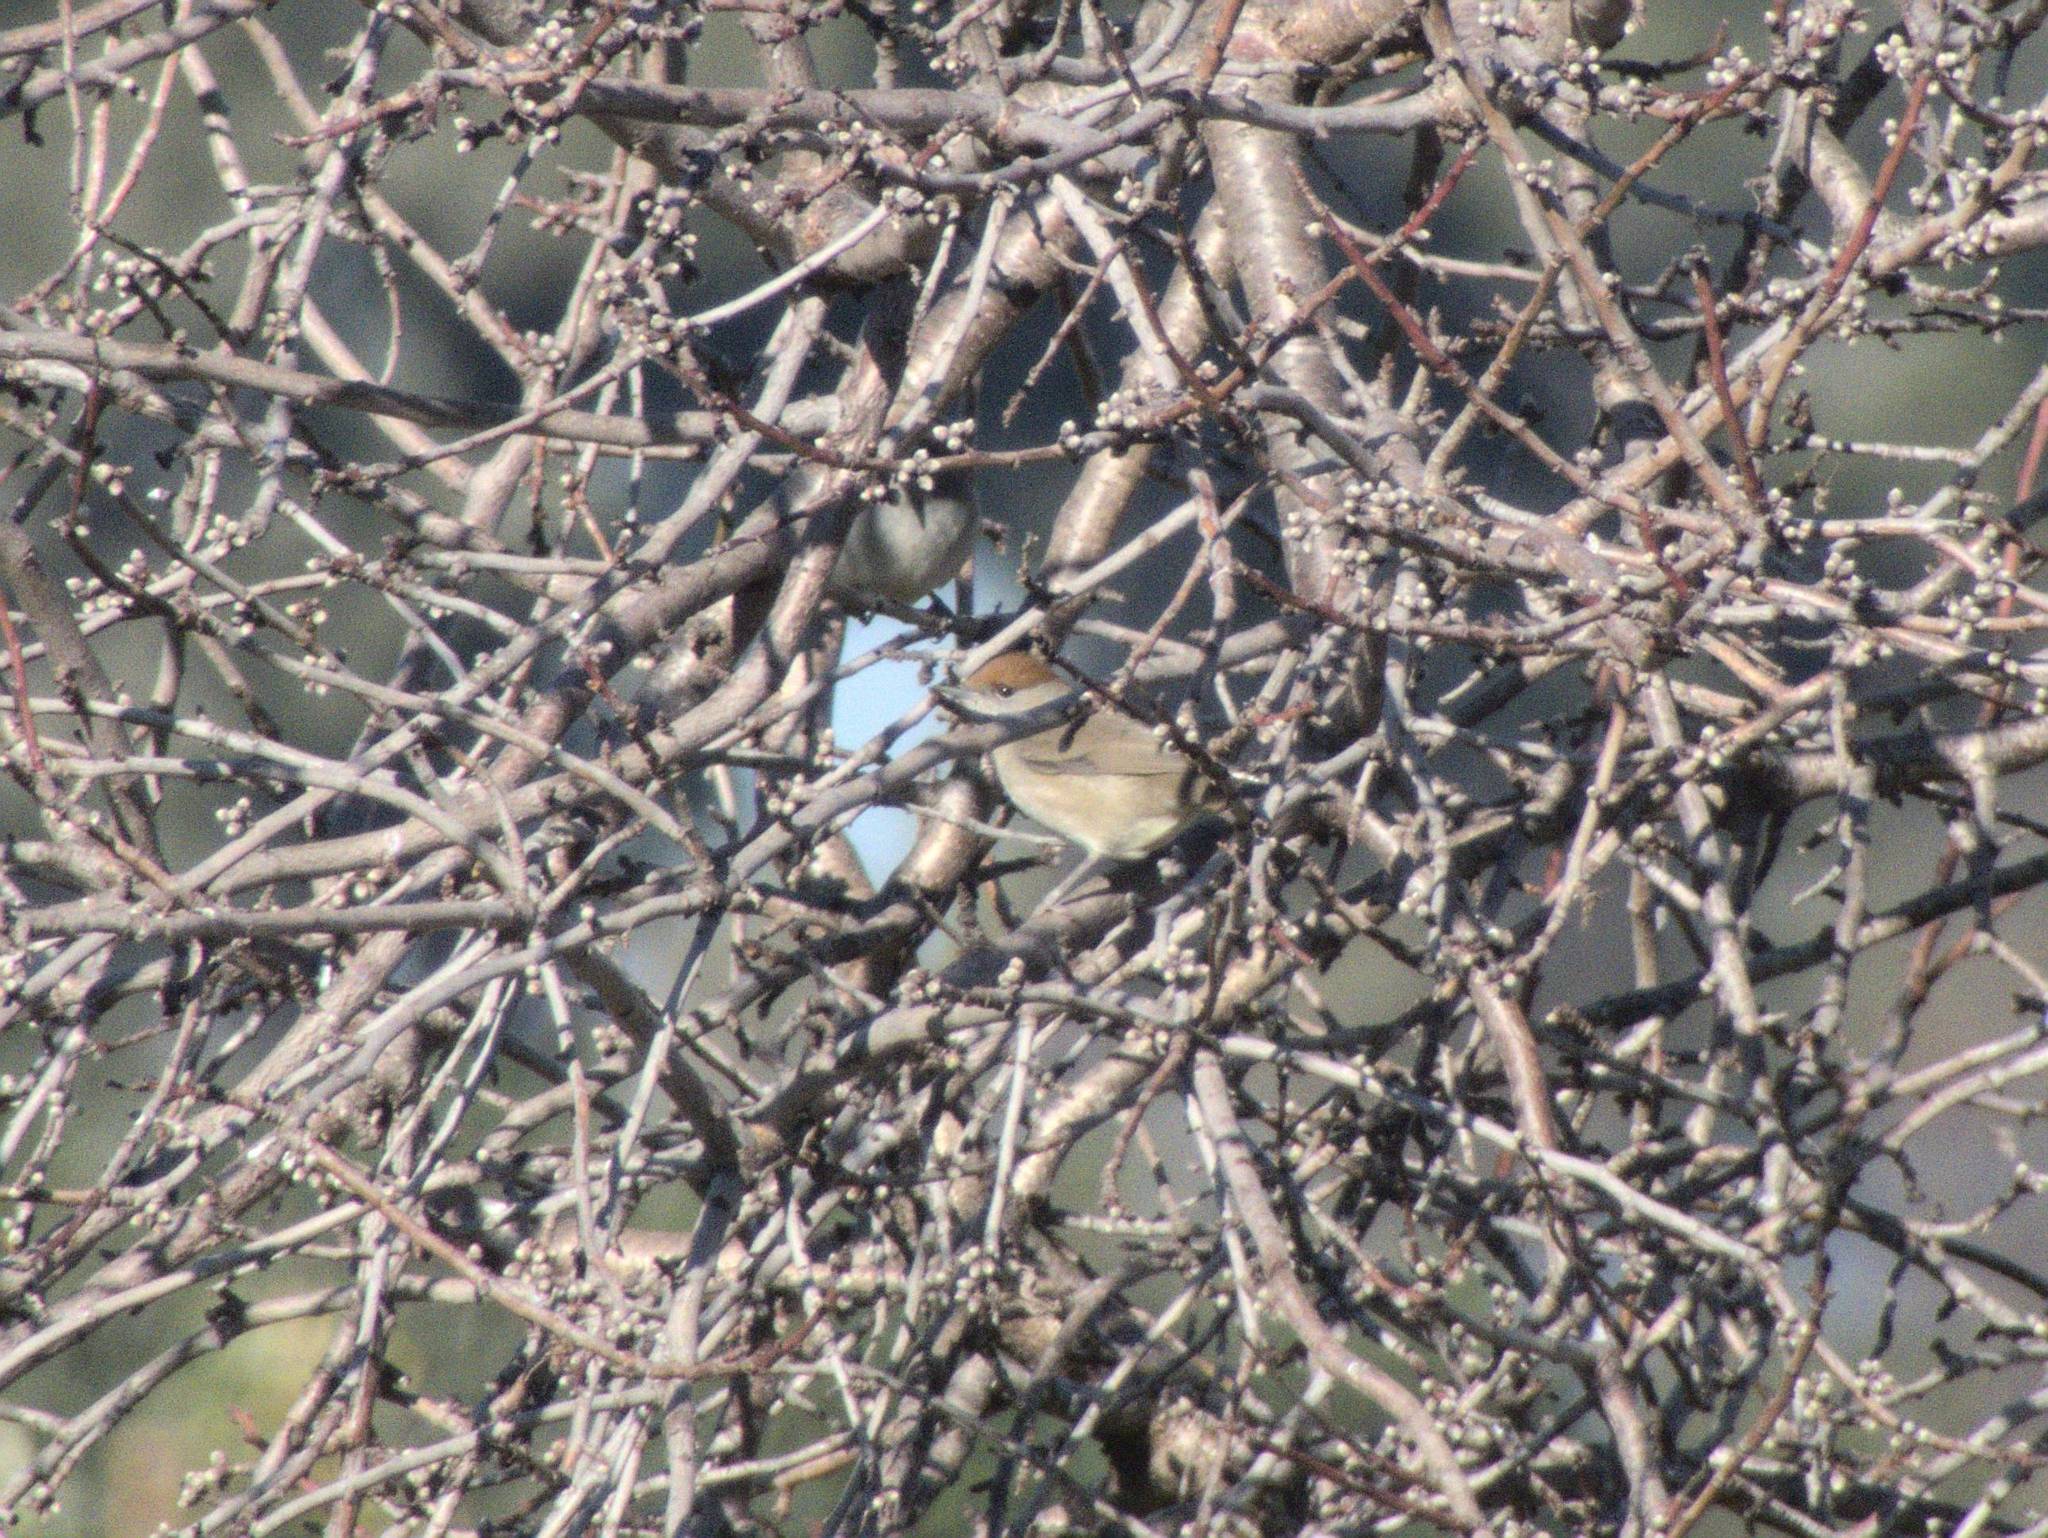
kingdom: Animalia
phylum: Chordata
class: Aves
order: Passeriformes
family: Sylviidae
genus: Sylvia
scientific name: Sylvia atricapilla
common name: Eurasian blackcap
